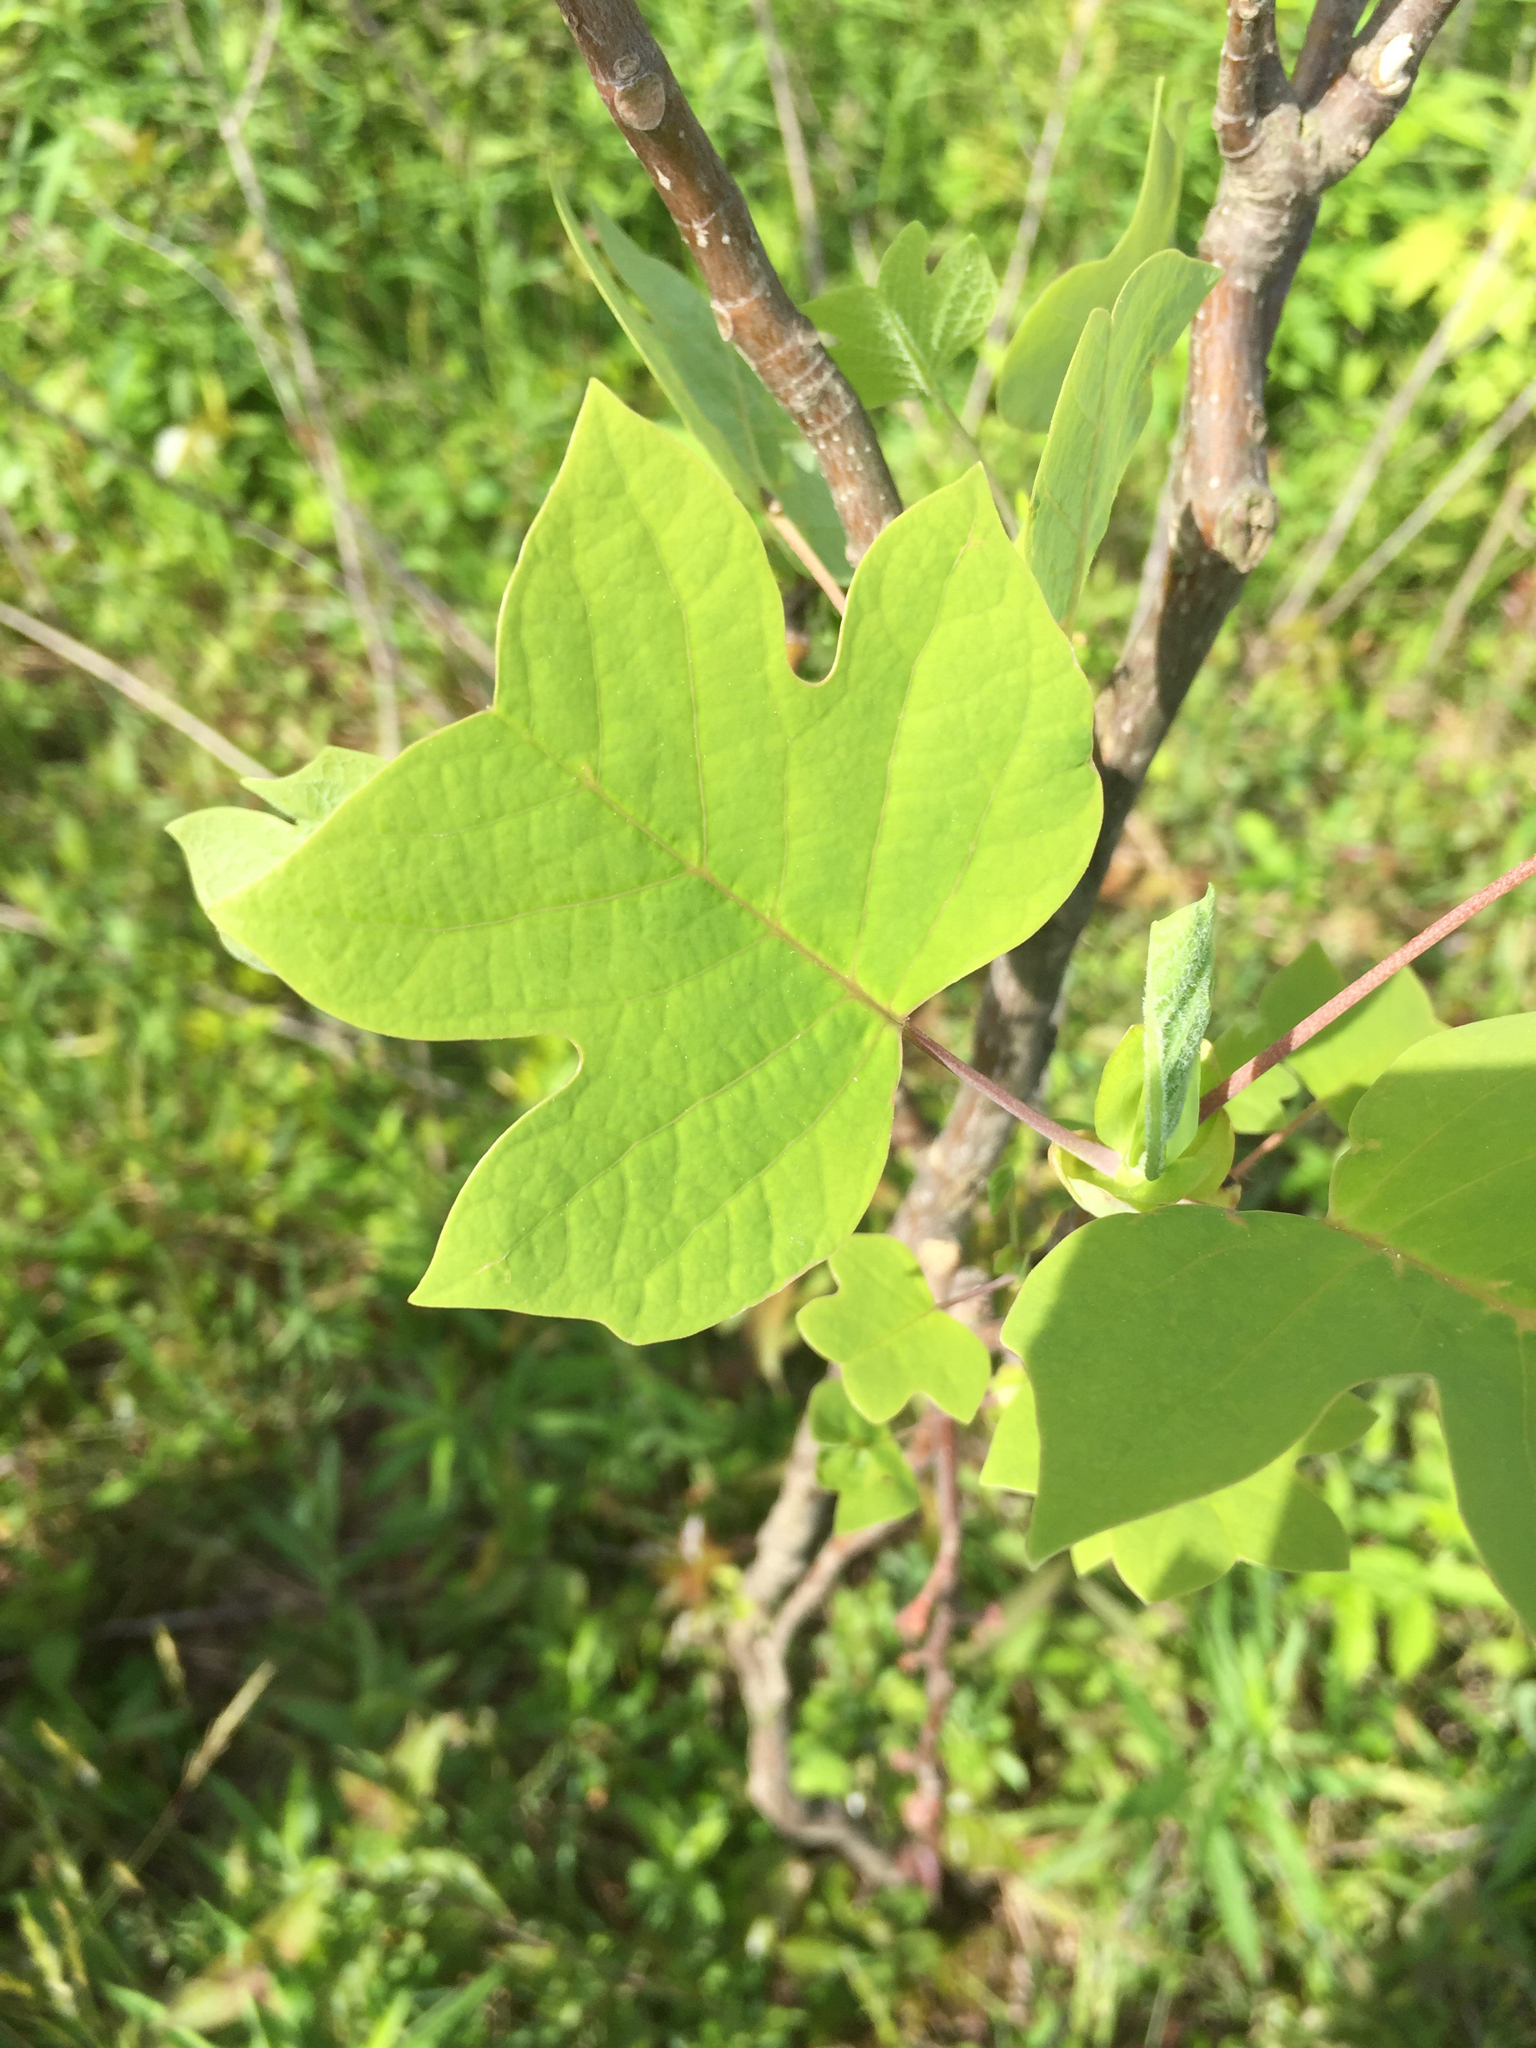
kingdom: Plantae
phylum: Tracheophyta
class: Magnoliopsida
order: Magnoliales
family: Magnoliaceae
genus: Liriodendron
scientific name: Liriodendron tulipifera
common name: Tulip tree
